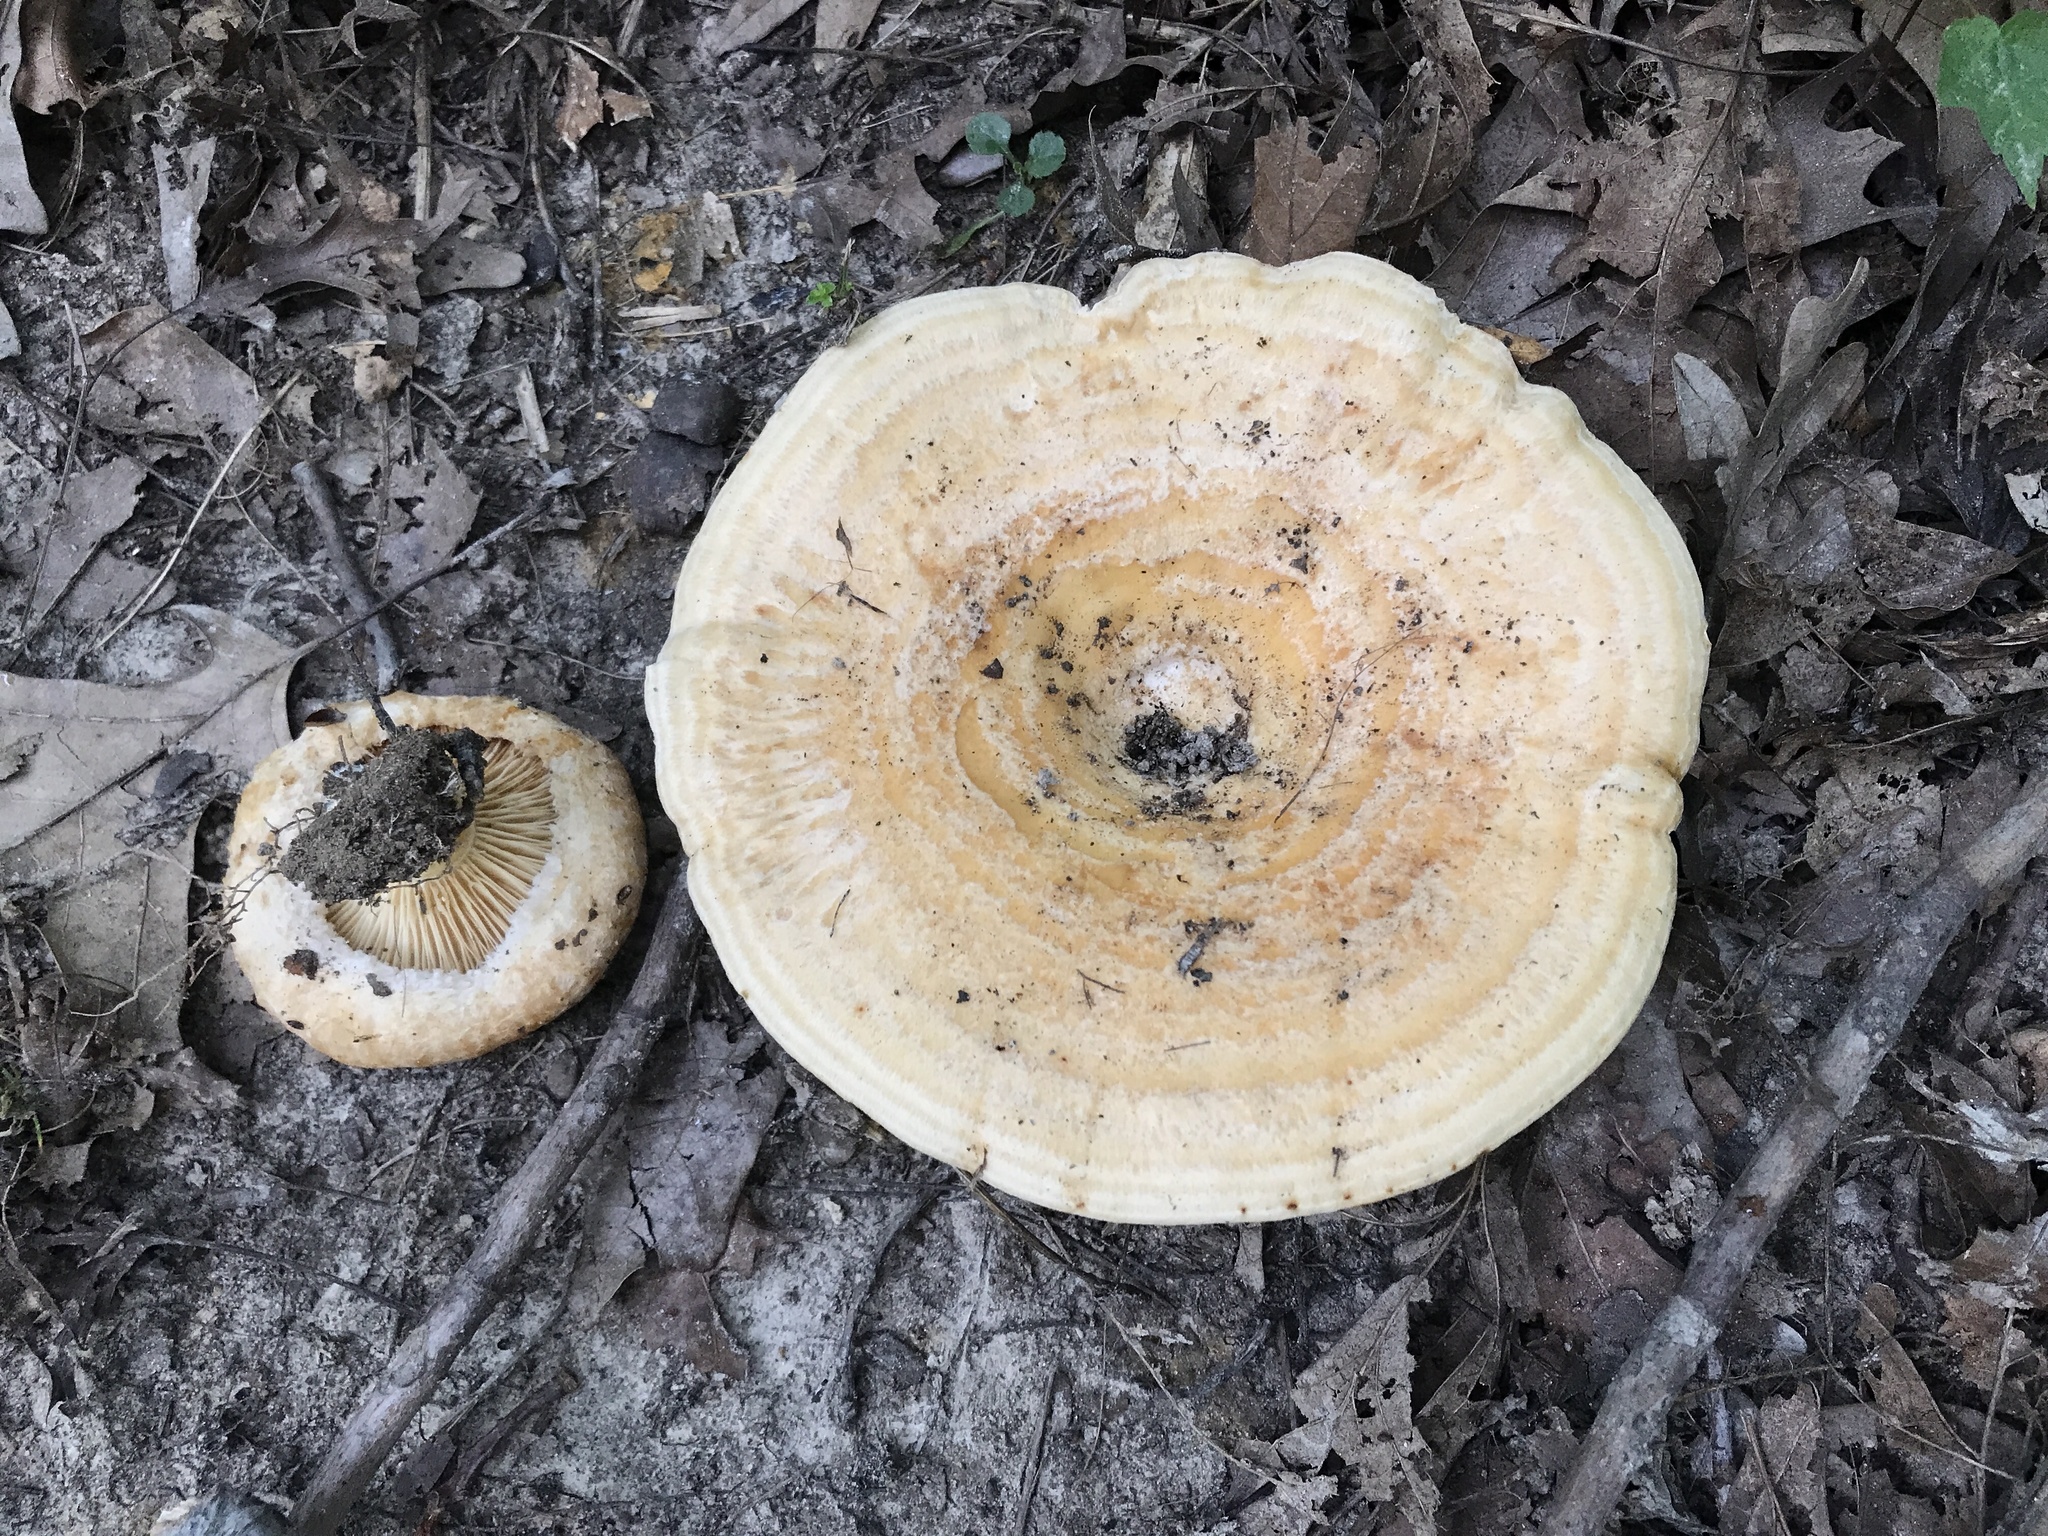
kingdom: Fungi
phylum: Basidiomycota
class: Agaricomycetes
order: Russulales
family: Russulaceae
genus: Lactarius
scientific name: Lactarius psammicola
